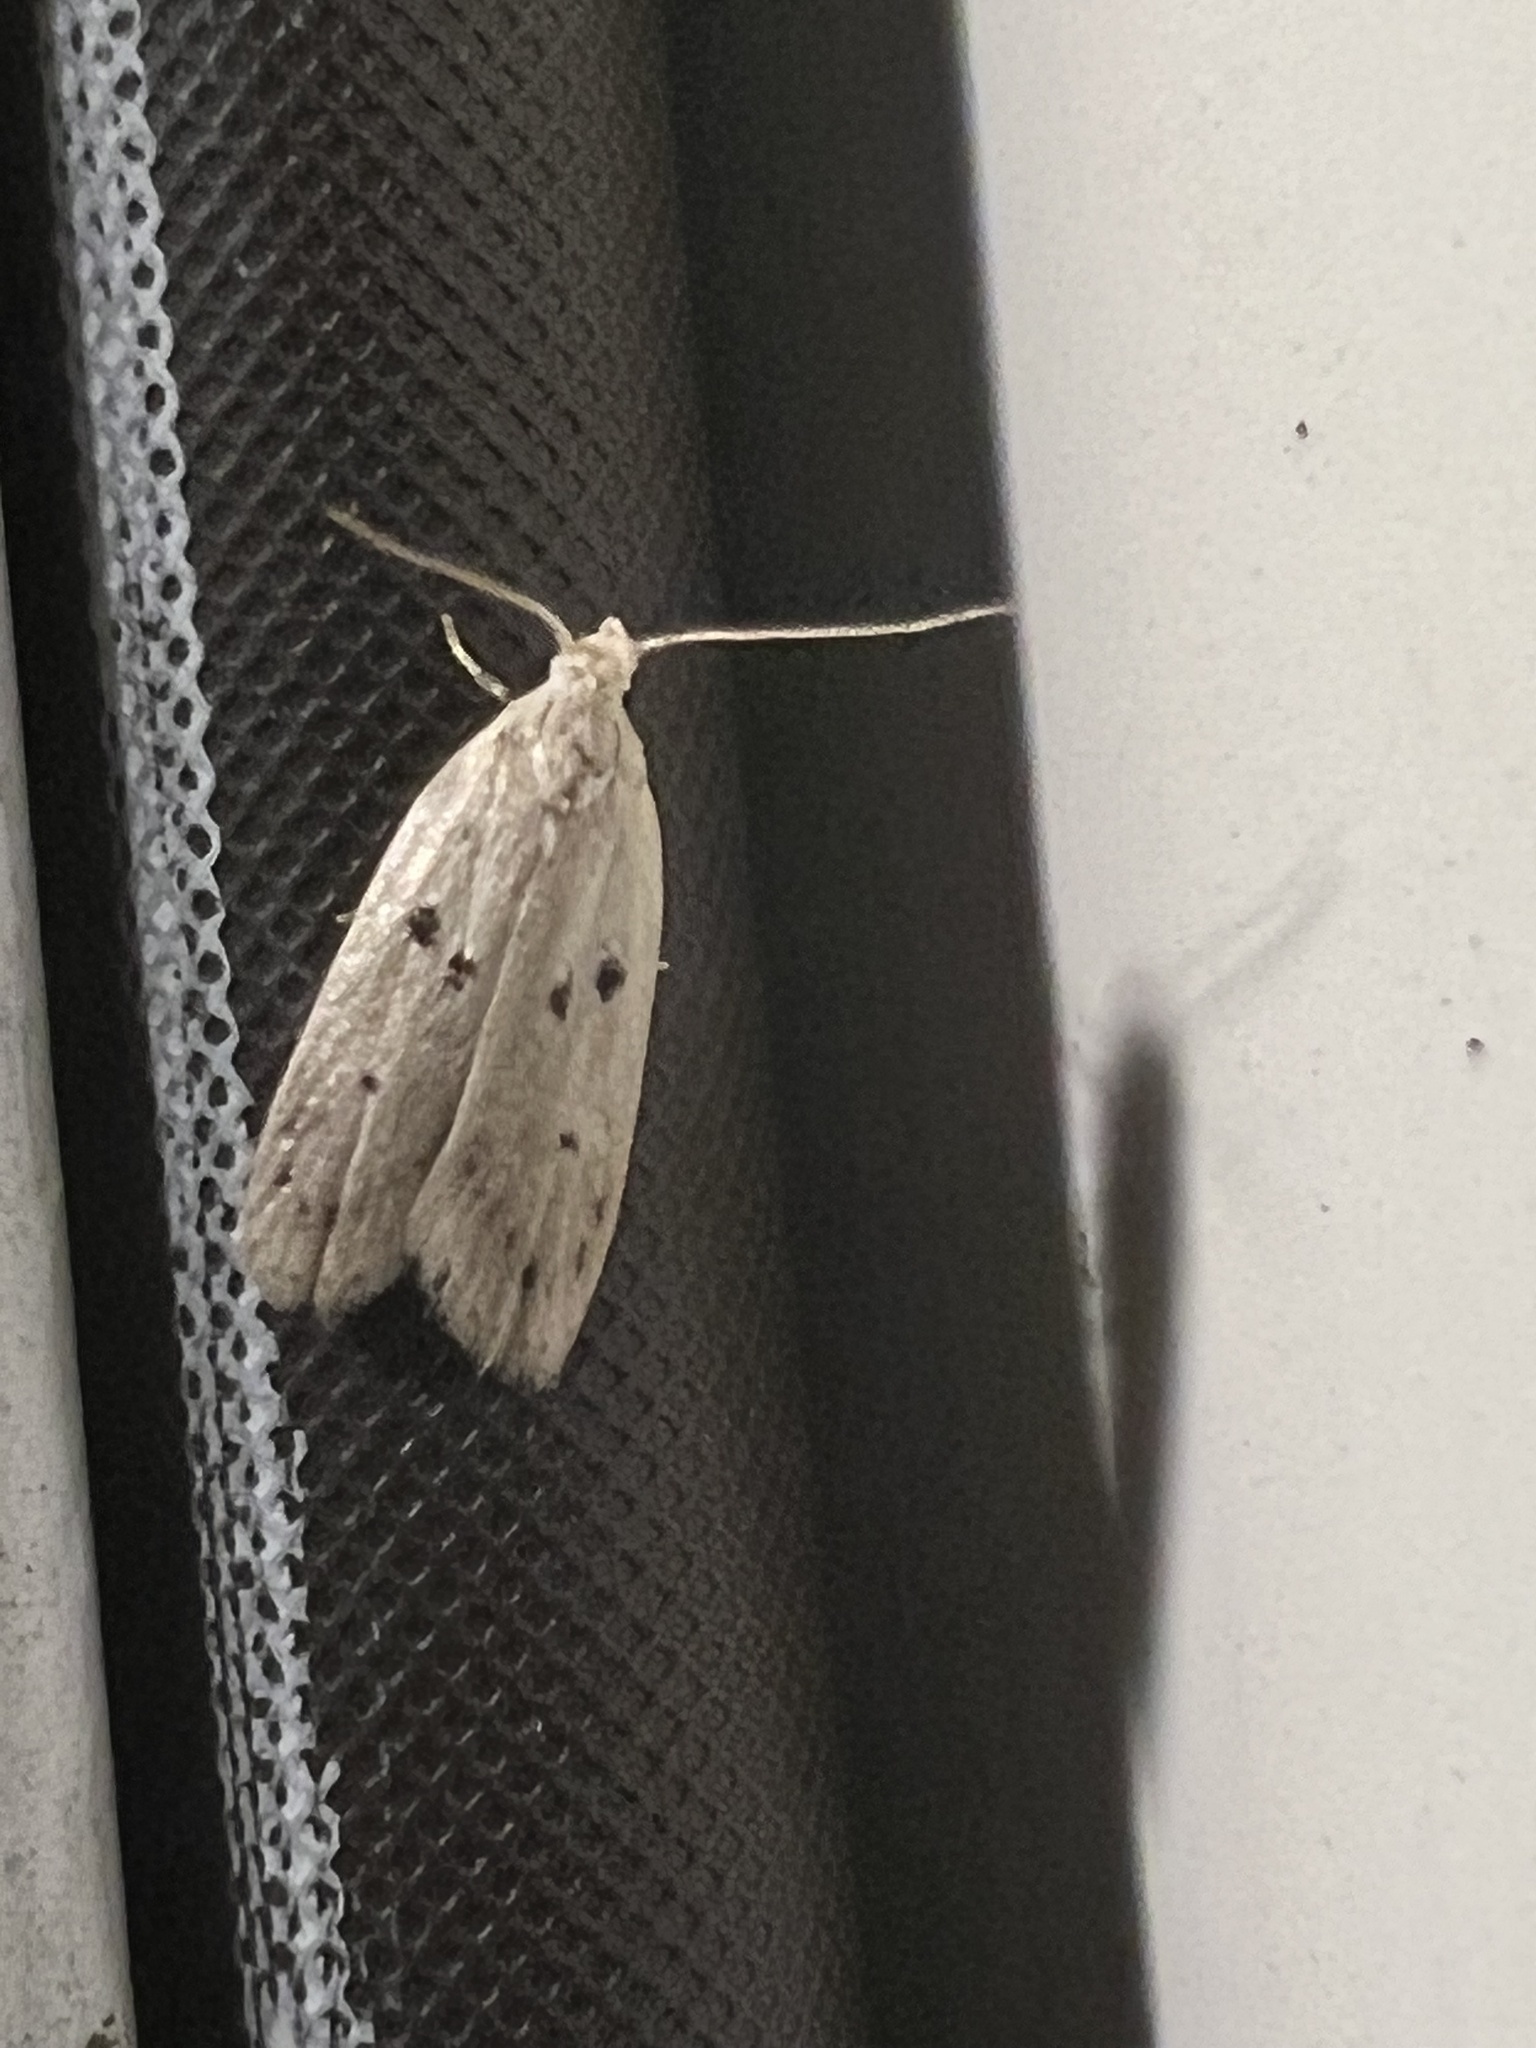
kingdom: Animalia
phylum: Arthropoda
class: Insecta
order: Lepidoptera
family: Peleopodidae
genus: Scythropiodes
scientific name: Scythropiodes issikii
